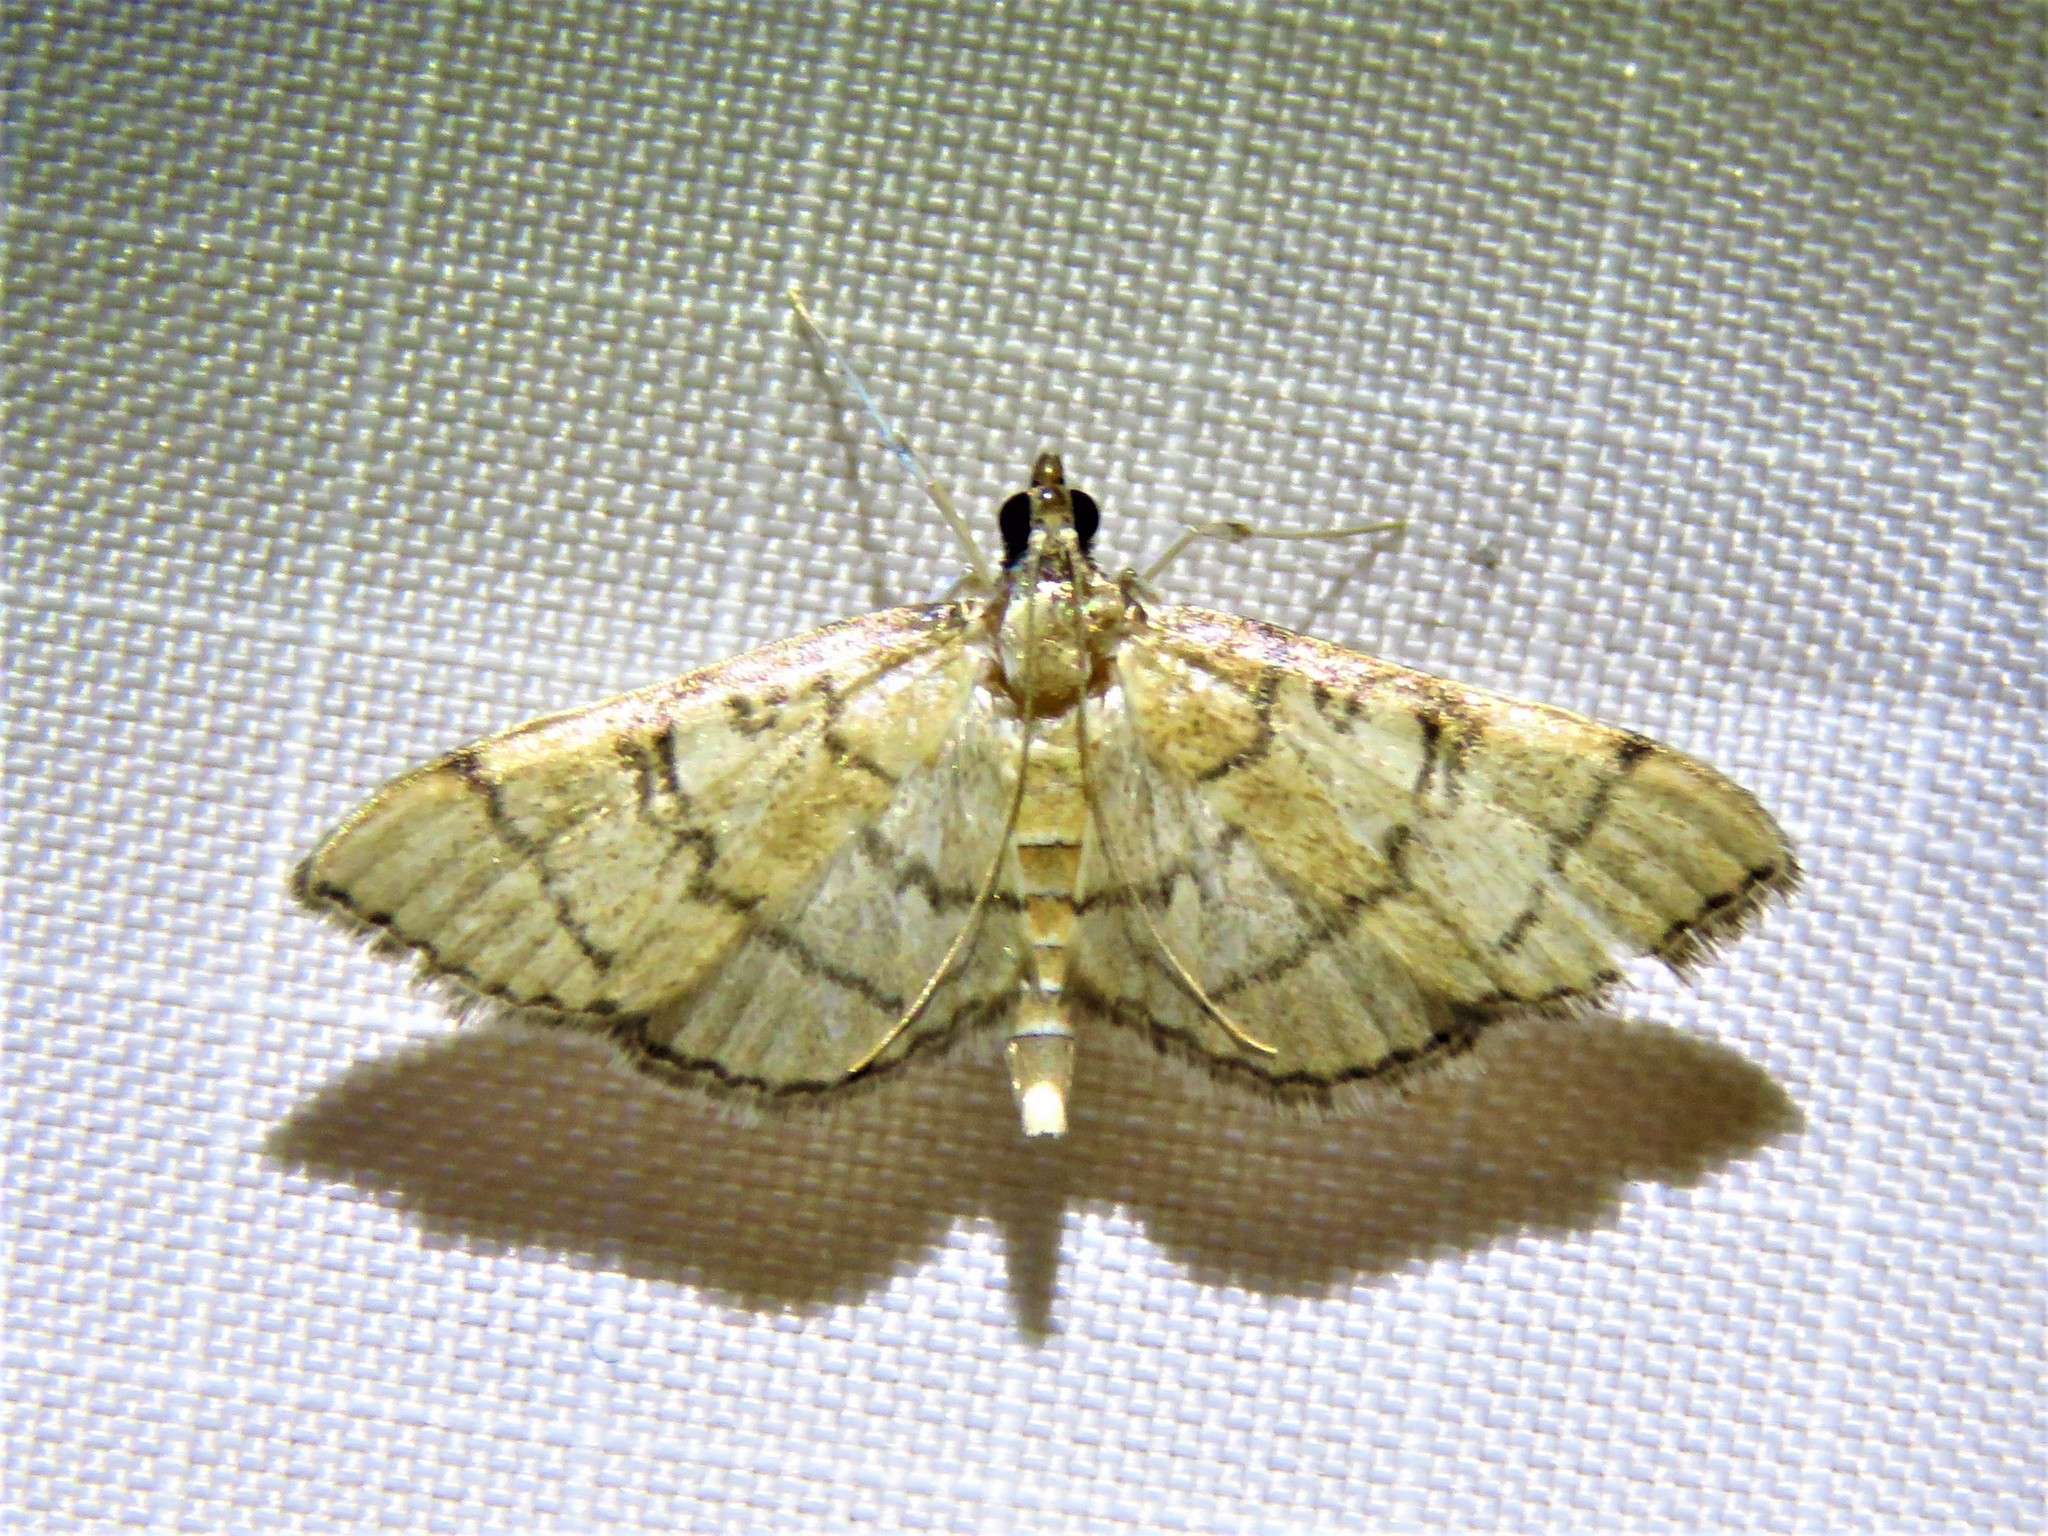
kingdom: Animalia
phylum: Arthropoda
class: Insecta
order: Lepidoptera
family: Crambidae
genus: Lamprosema
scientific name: Lamprosema Blepharomastix ranalis
